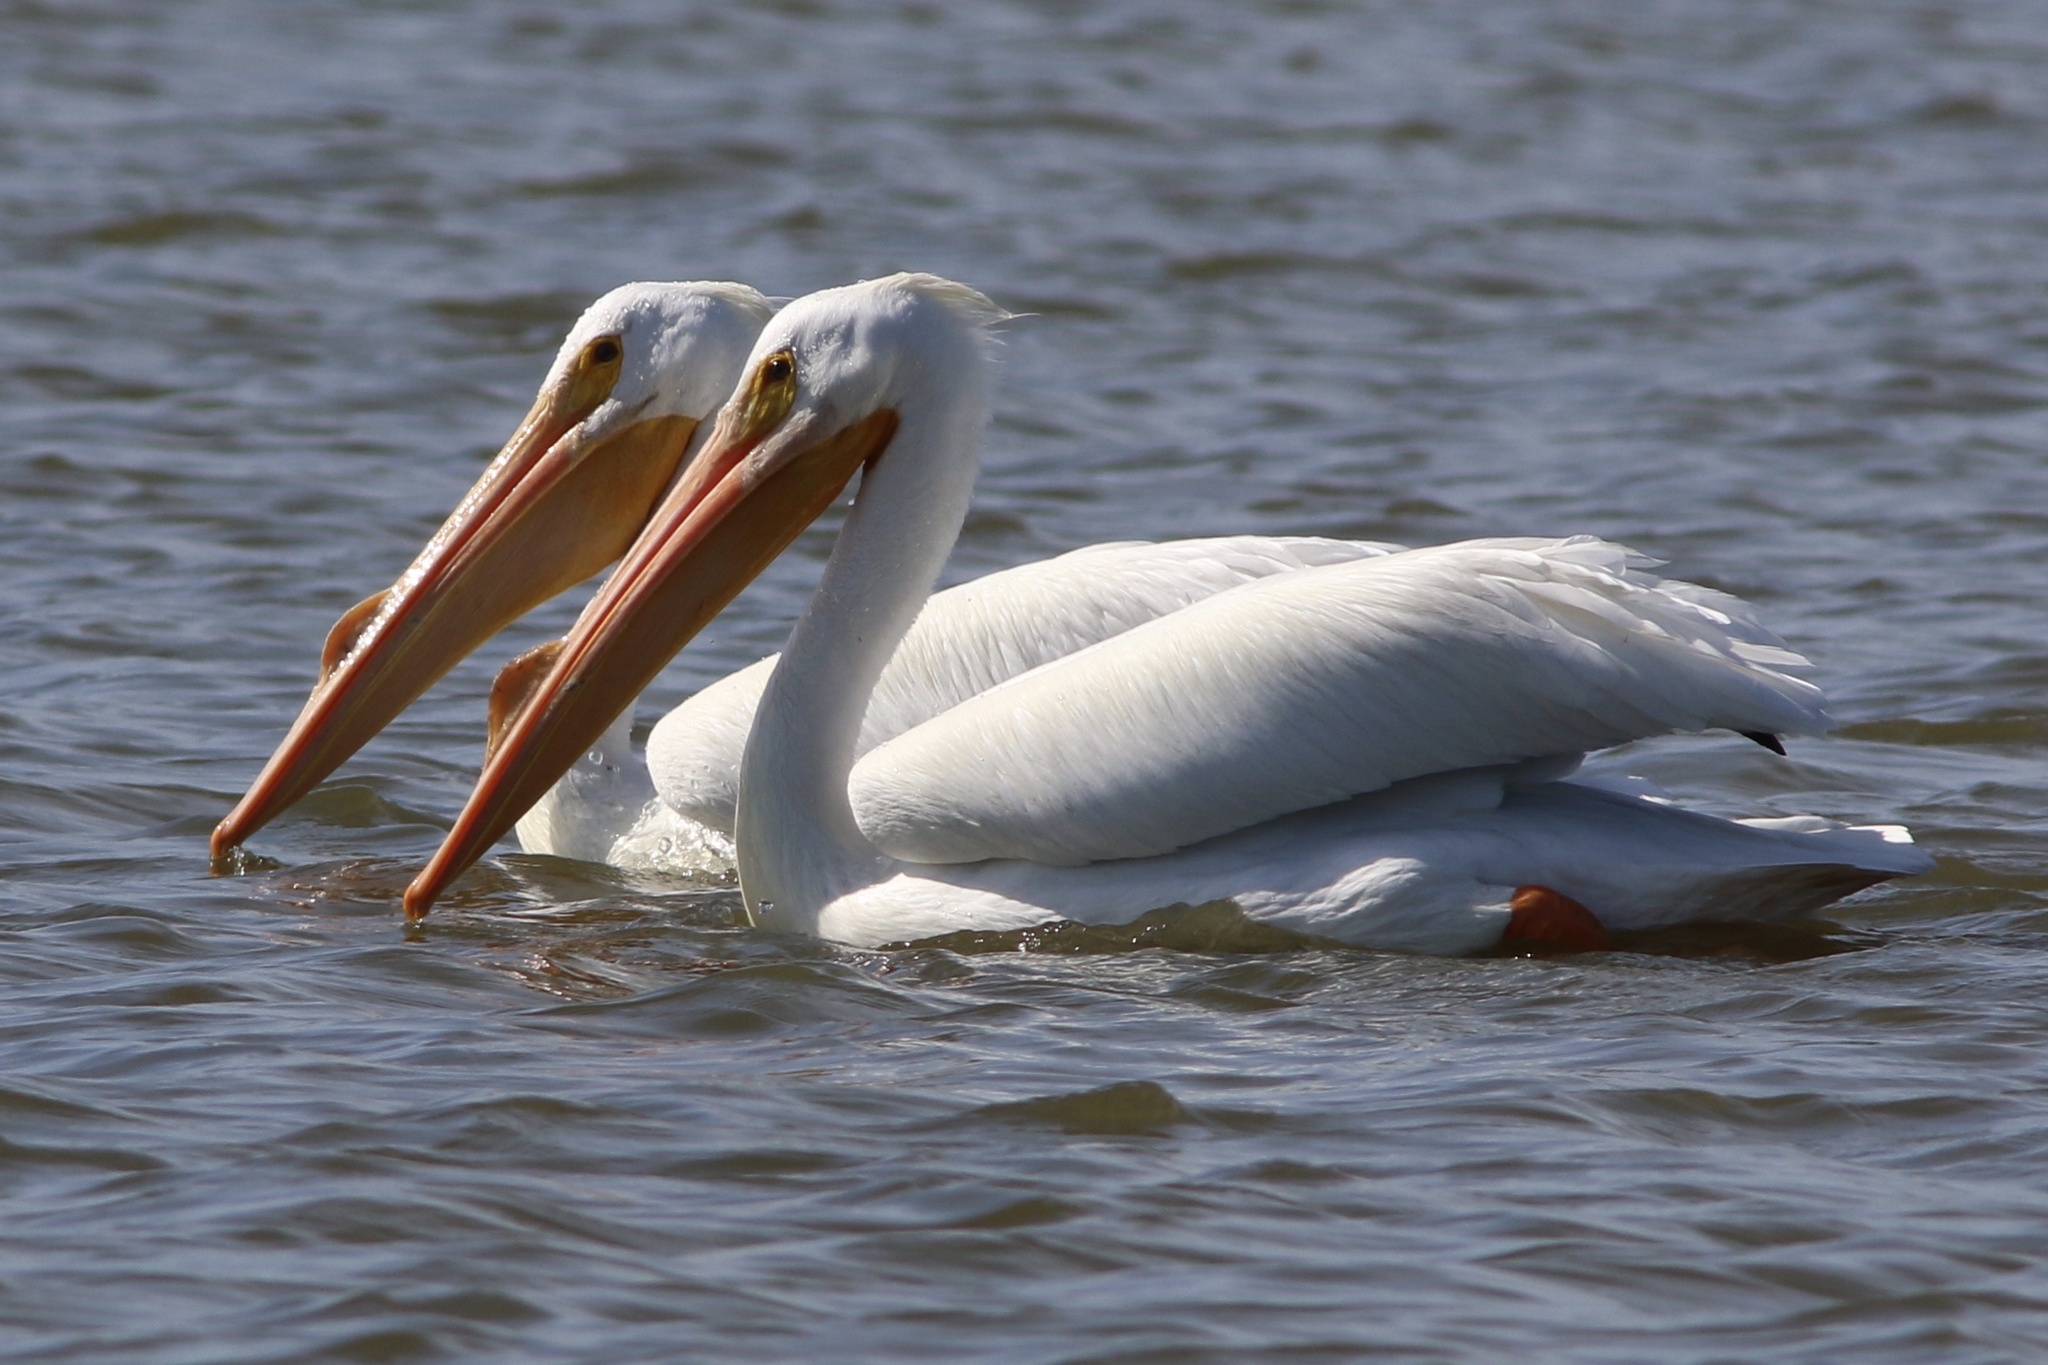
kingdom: Animalia
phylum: Chordata
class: Aves
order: Pelecaniformes
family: Pelecanidae
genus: Pelecanus
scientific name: Pelecanus erythrorhynchos
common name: American white pelican
